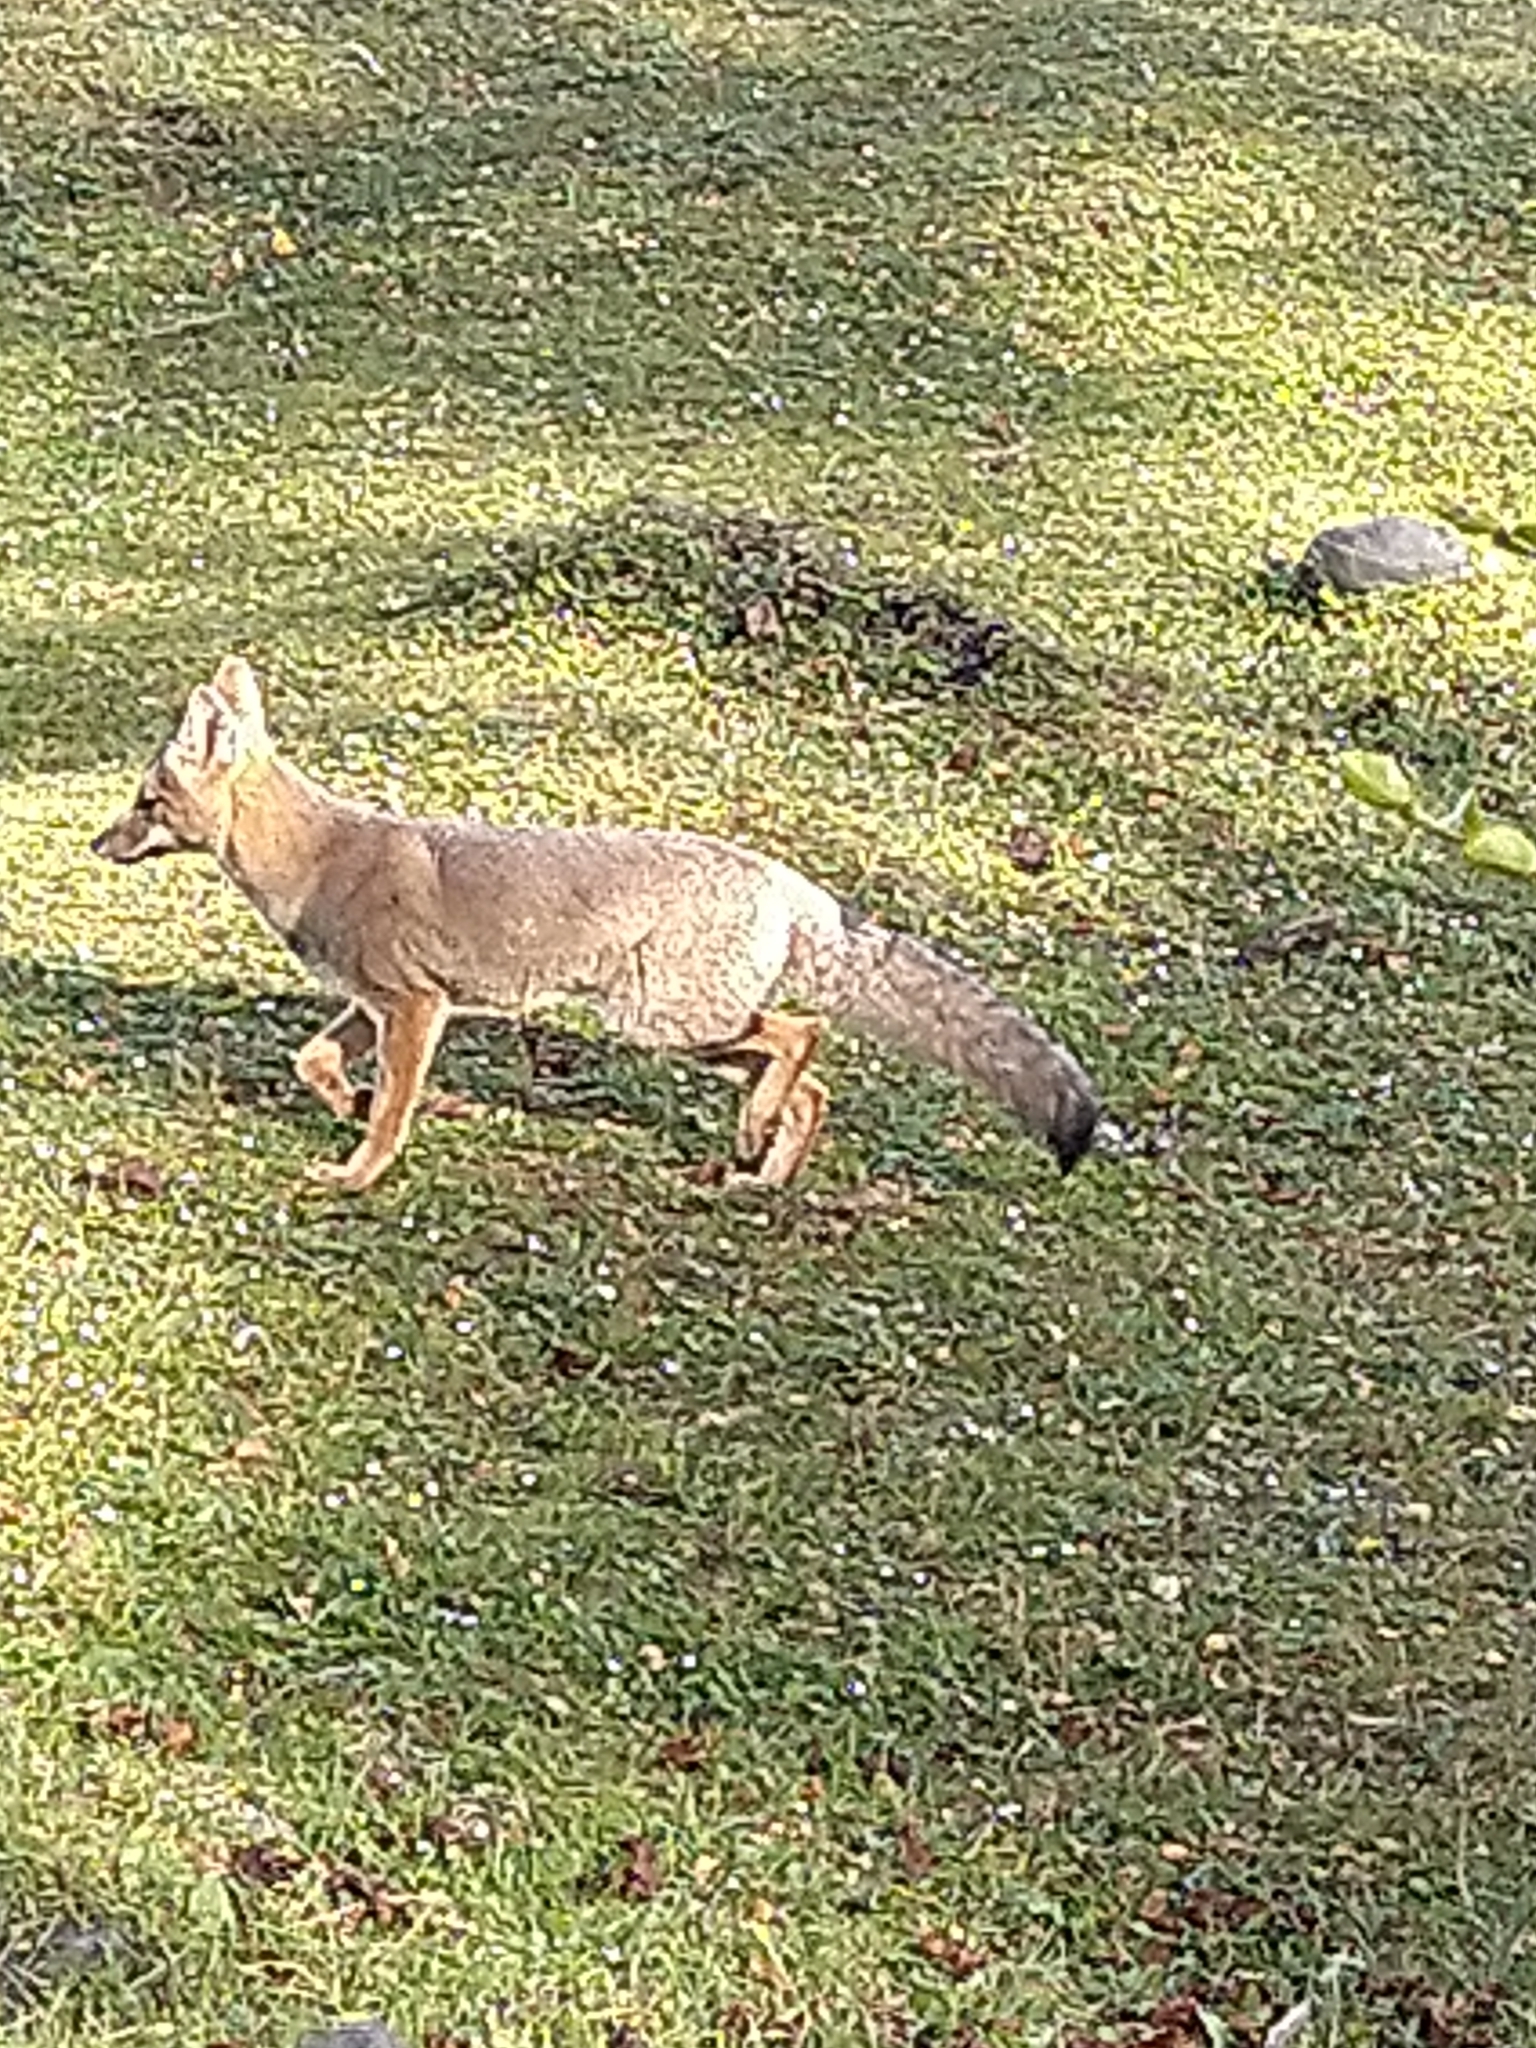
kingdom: Animalia
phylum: Chordata
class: Mammalia
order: Carnivora
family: Canidae
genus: Lycalopex
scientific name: Lycalopex gymnocercus
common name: Pampas fox
